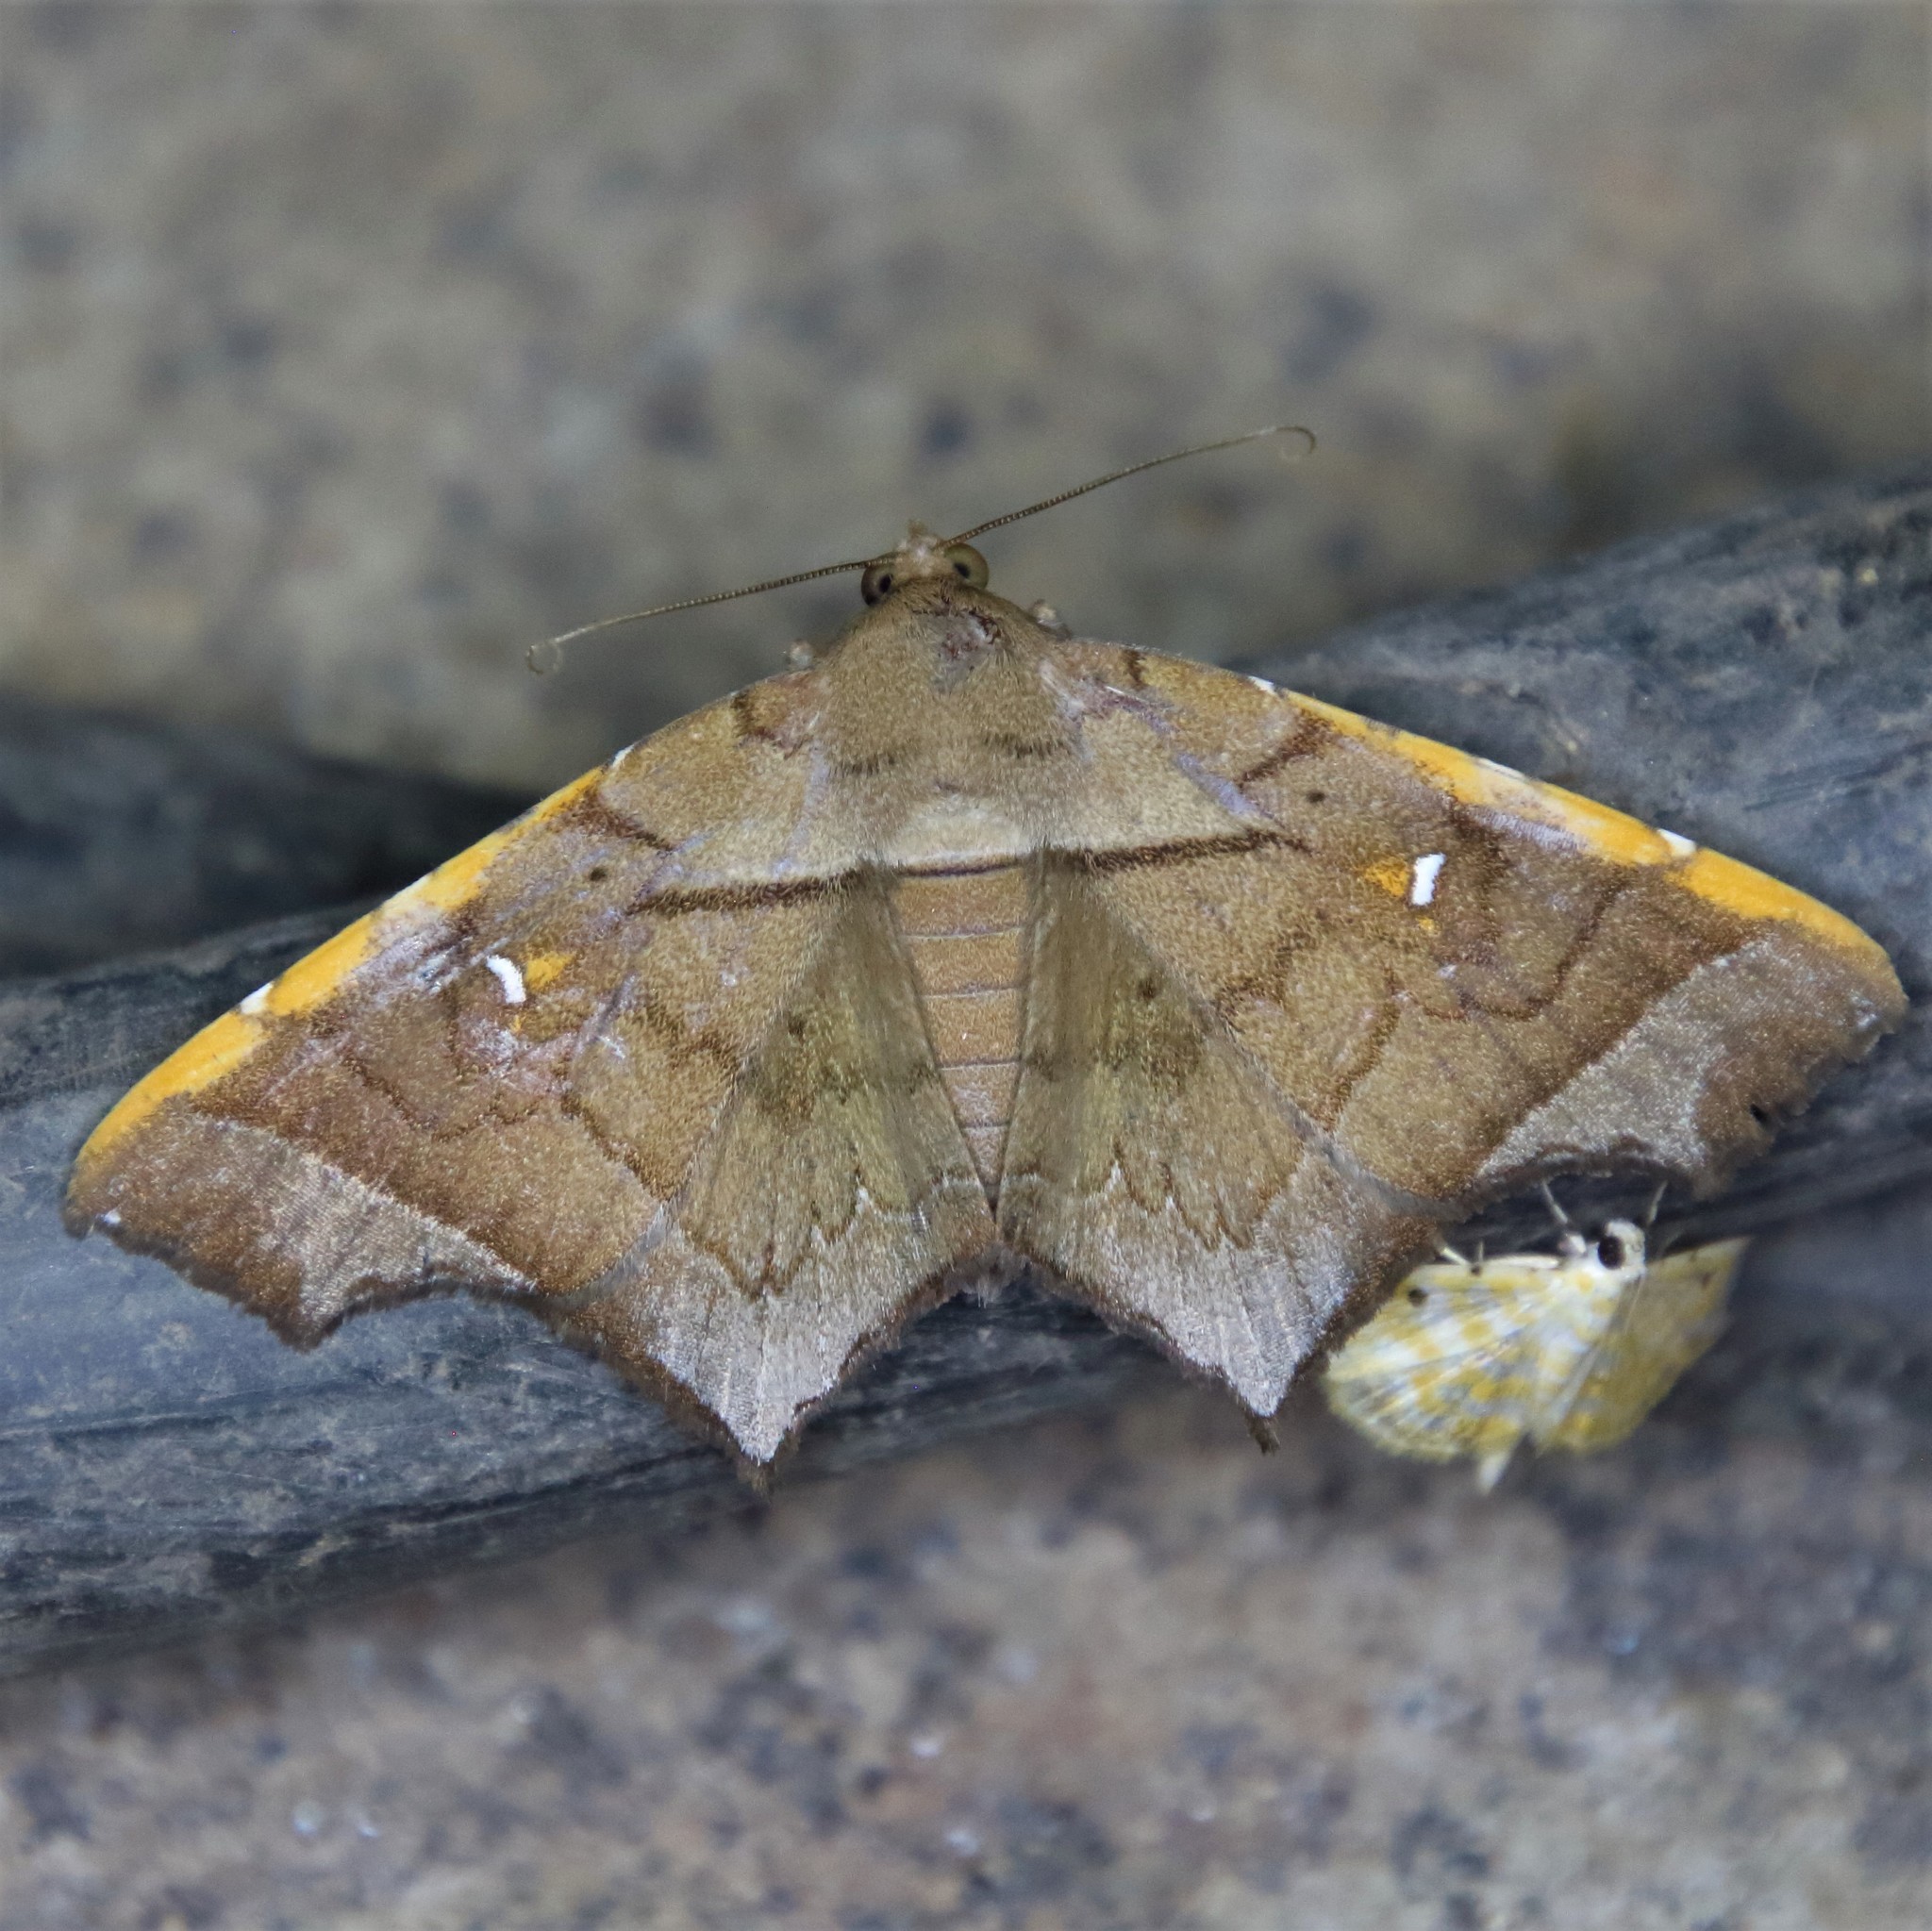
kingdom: Animalia
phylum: Arthropoda
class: Insecta
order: Lepidoptera
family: Erebidae
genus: Episparis
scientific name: Episparis costistriga
